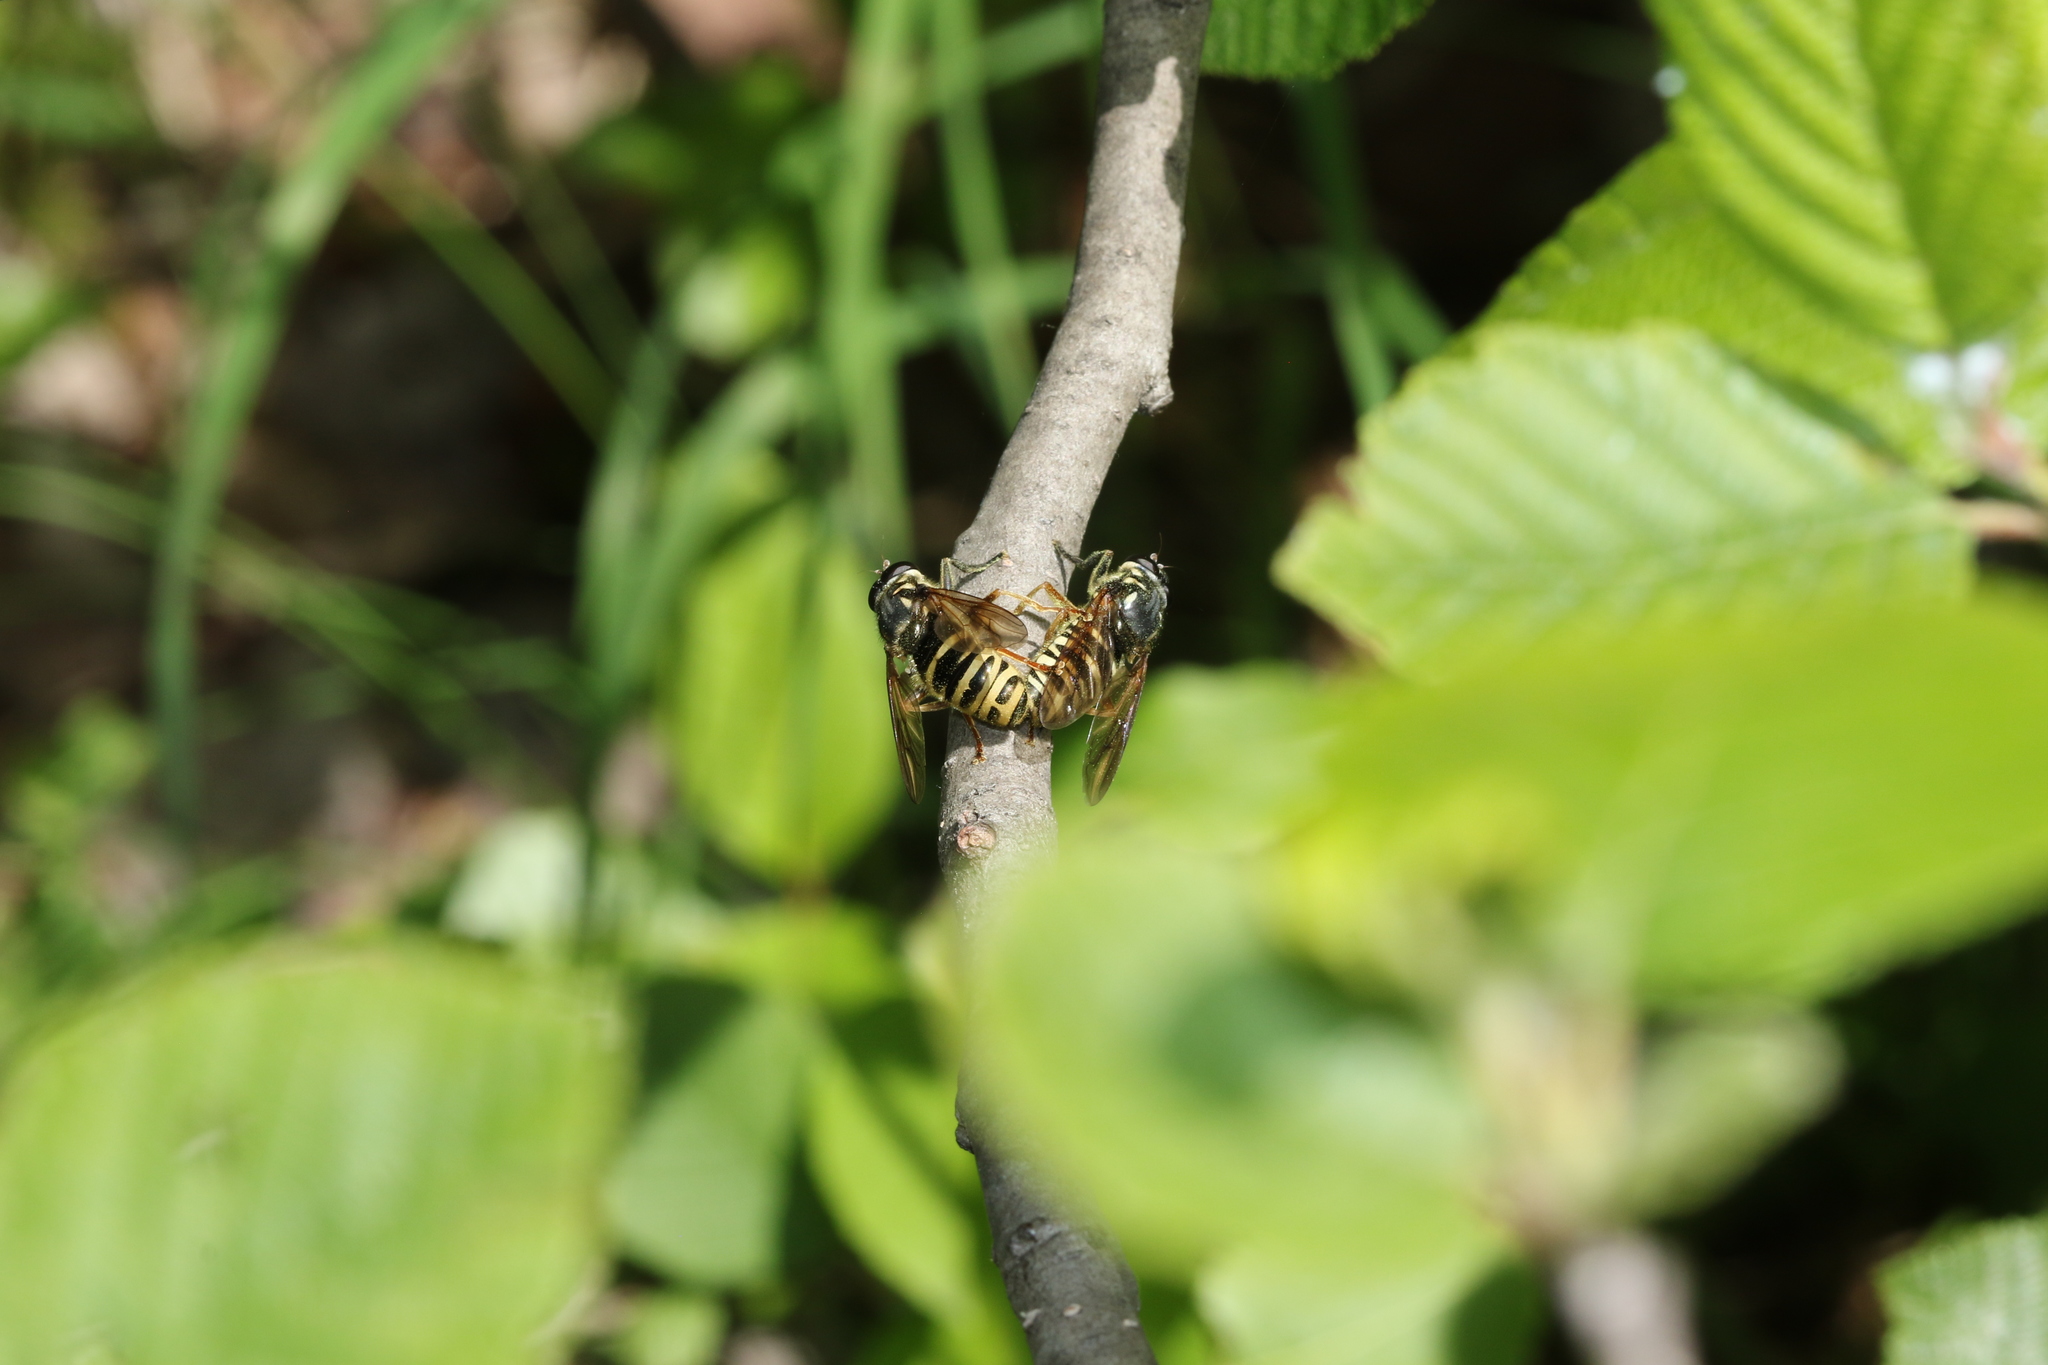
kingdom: Animalia
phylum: Arthropoda
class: Insecta
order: Diptera
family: Syrphidae
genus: Temnostoma
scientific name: Temnostoma excentricum
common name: Black-spotted falsehorn
